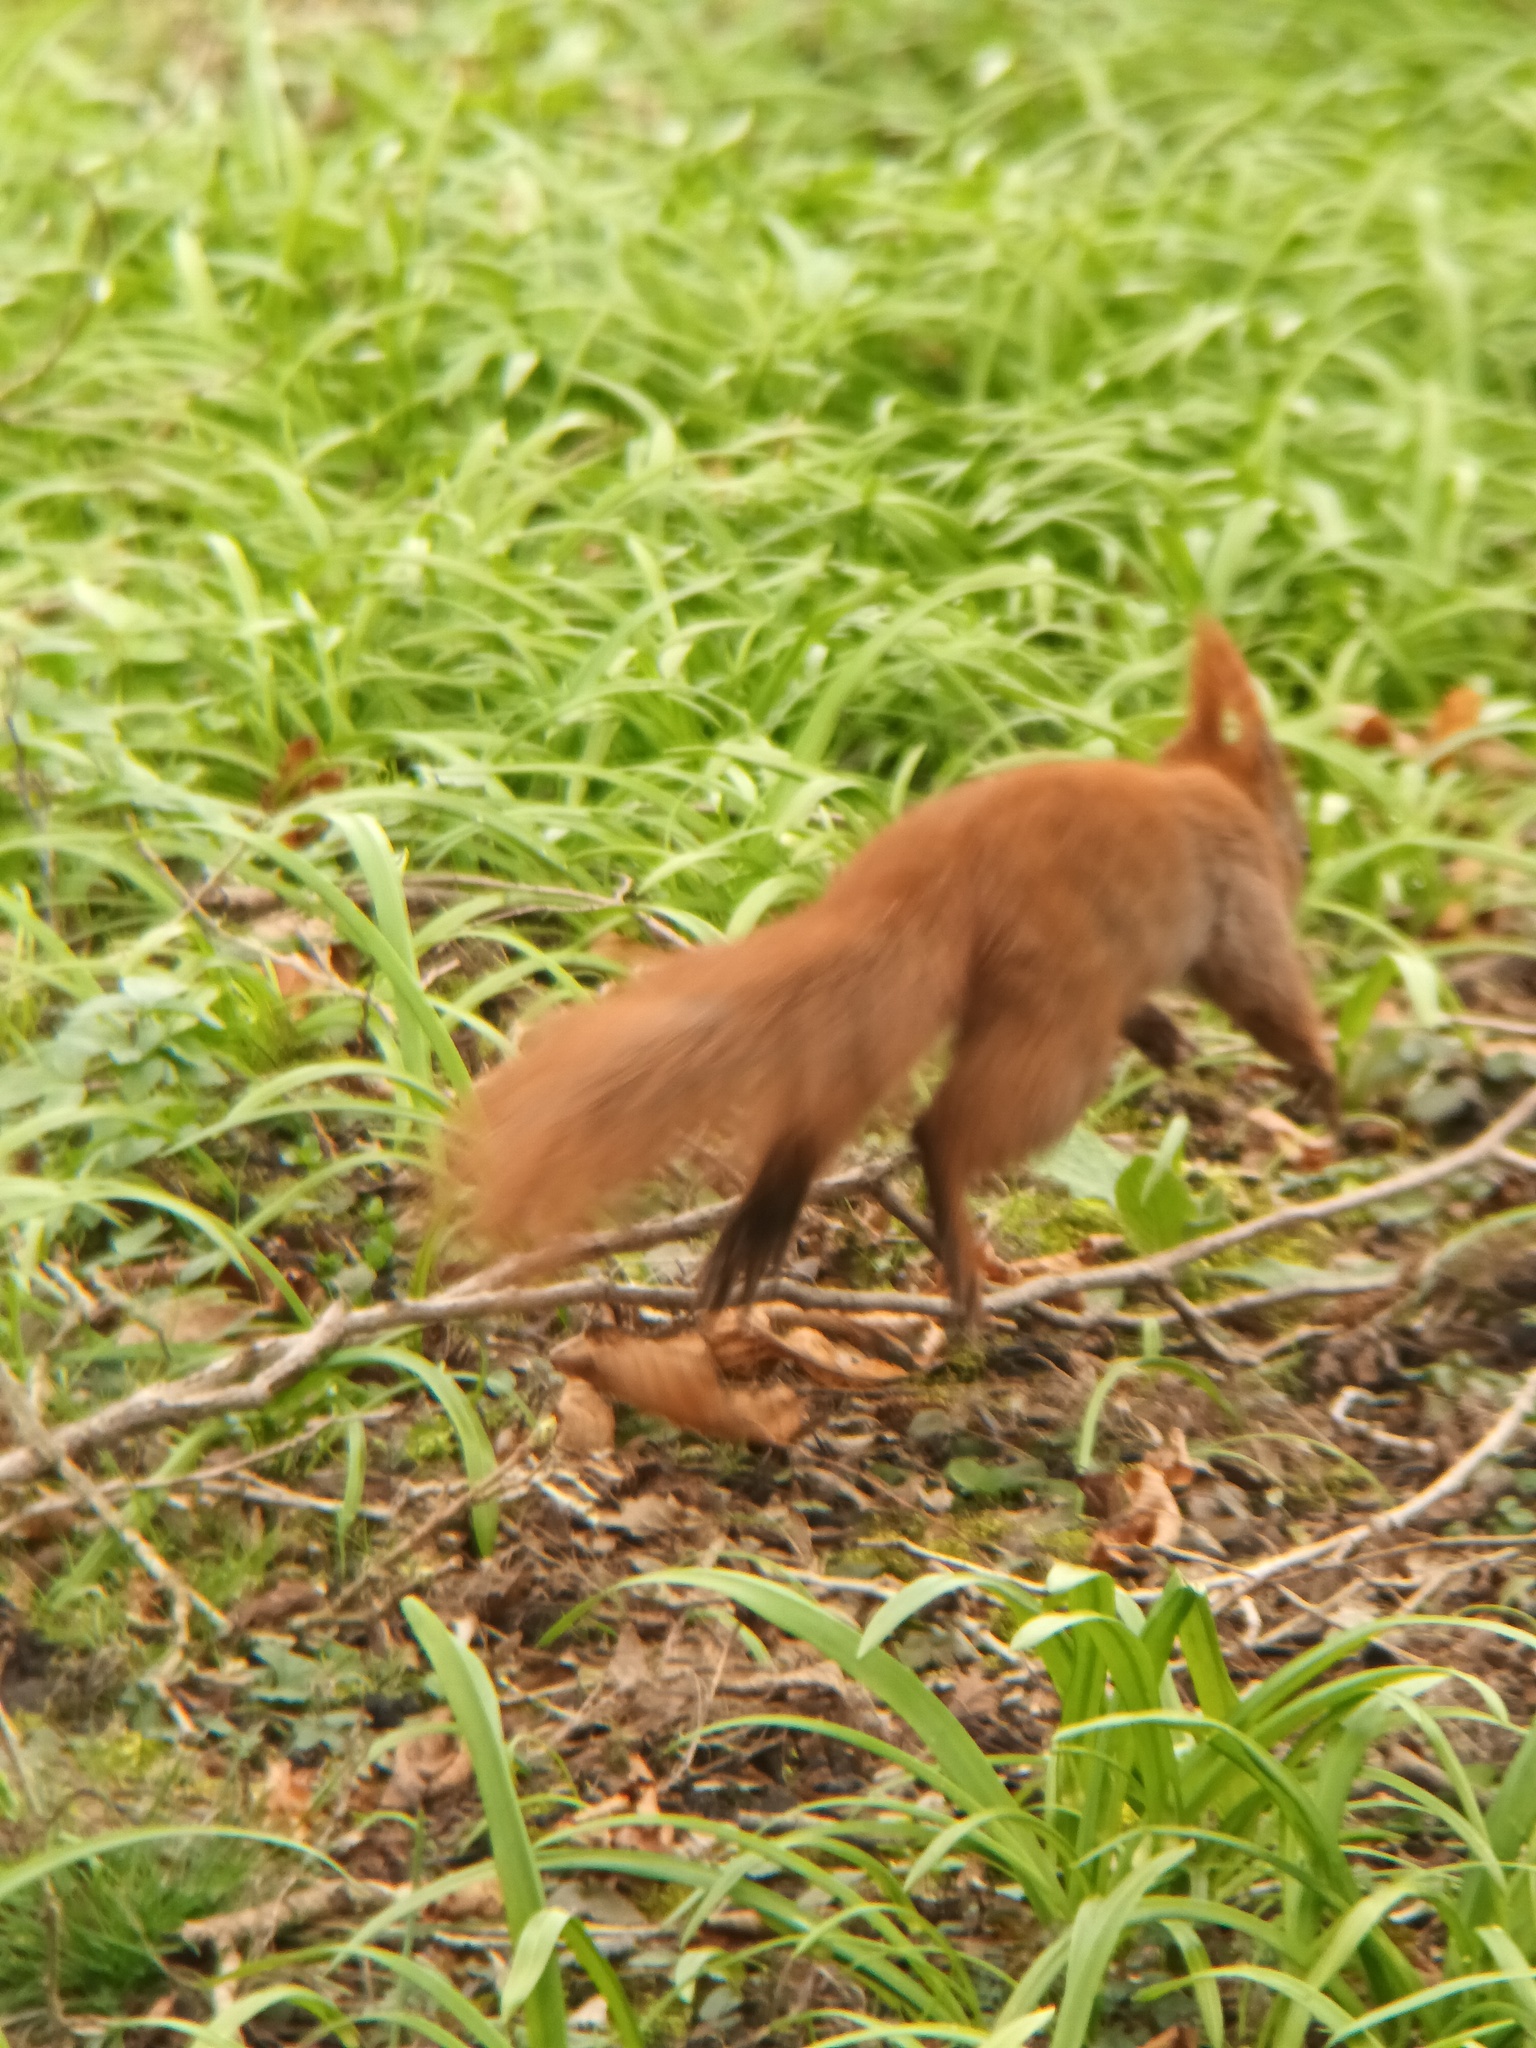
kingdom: Animalia
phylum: Chordata
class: Mammalia
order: Rodentia
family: Sciuridae
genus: Sciurus
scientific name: Sciurus vulgaris
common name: Eurasian red squirrel
